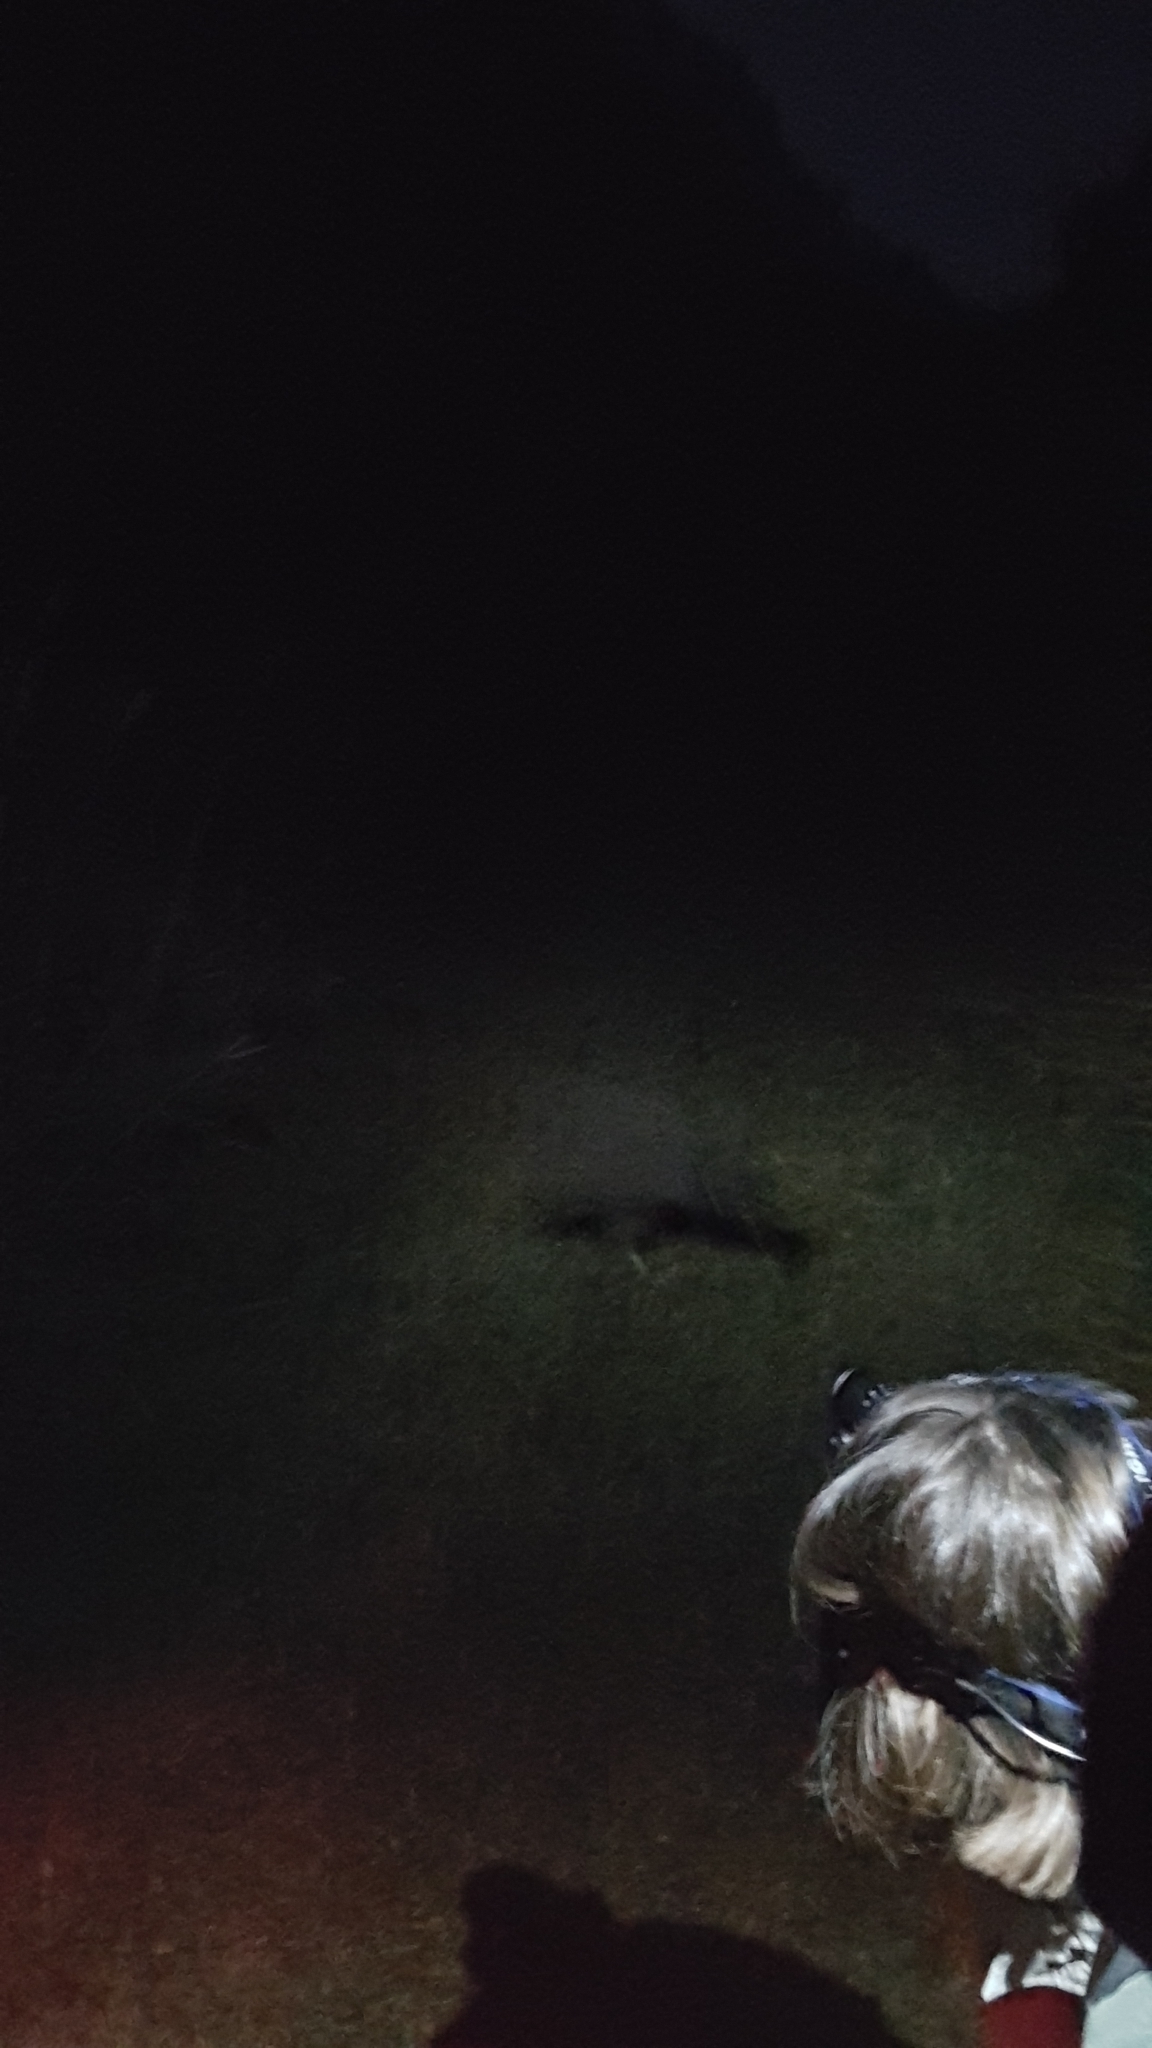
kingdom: Animalia
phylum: Chordata
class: Aves
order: Apterygiformes
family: Apterygidae
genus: Apteryx
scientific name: Apteryx mantelli
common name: North island brown kiwi
